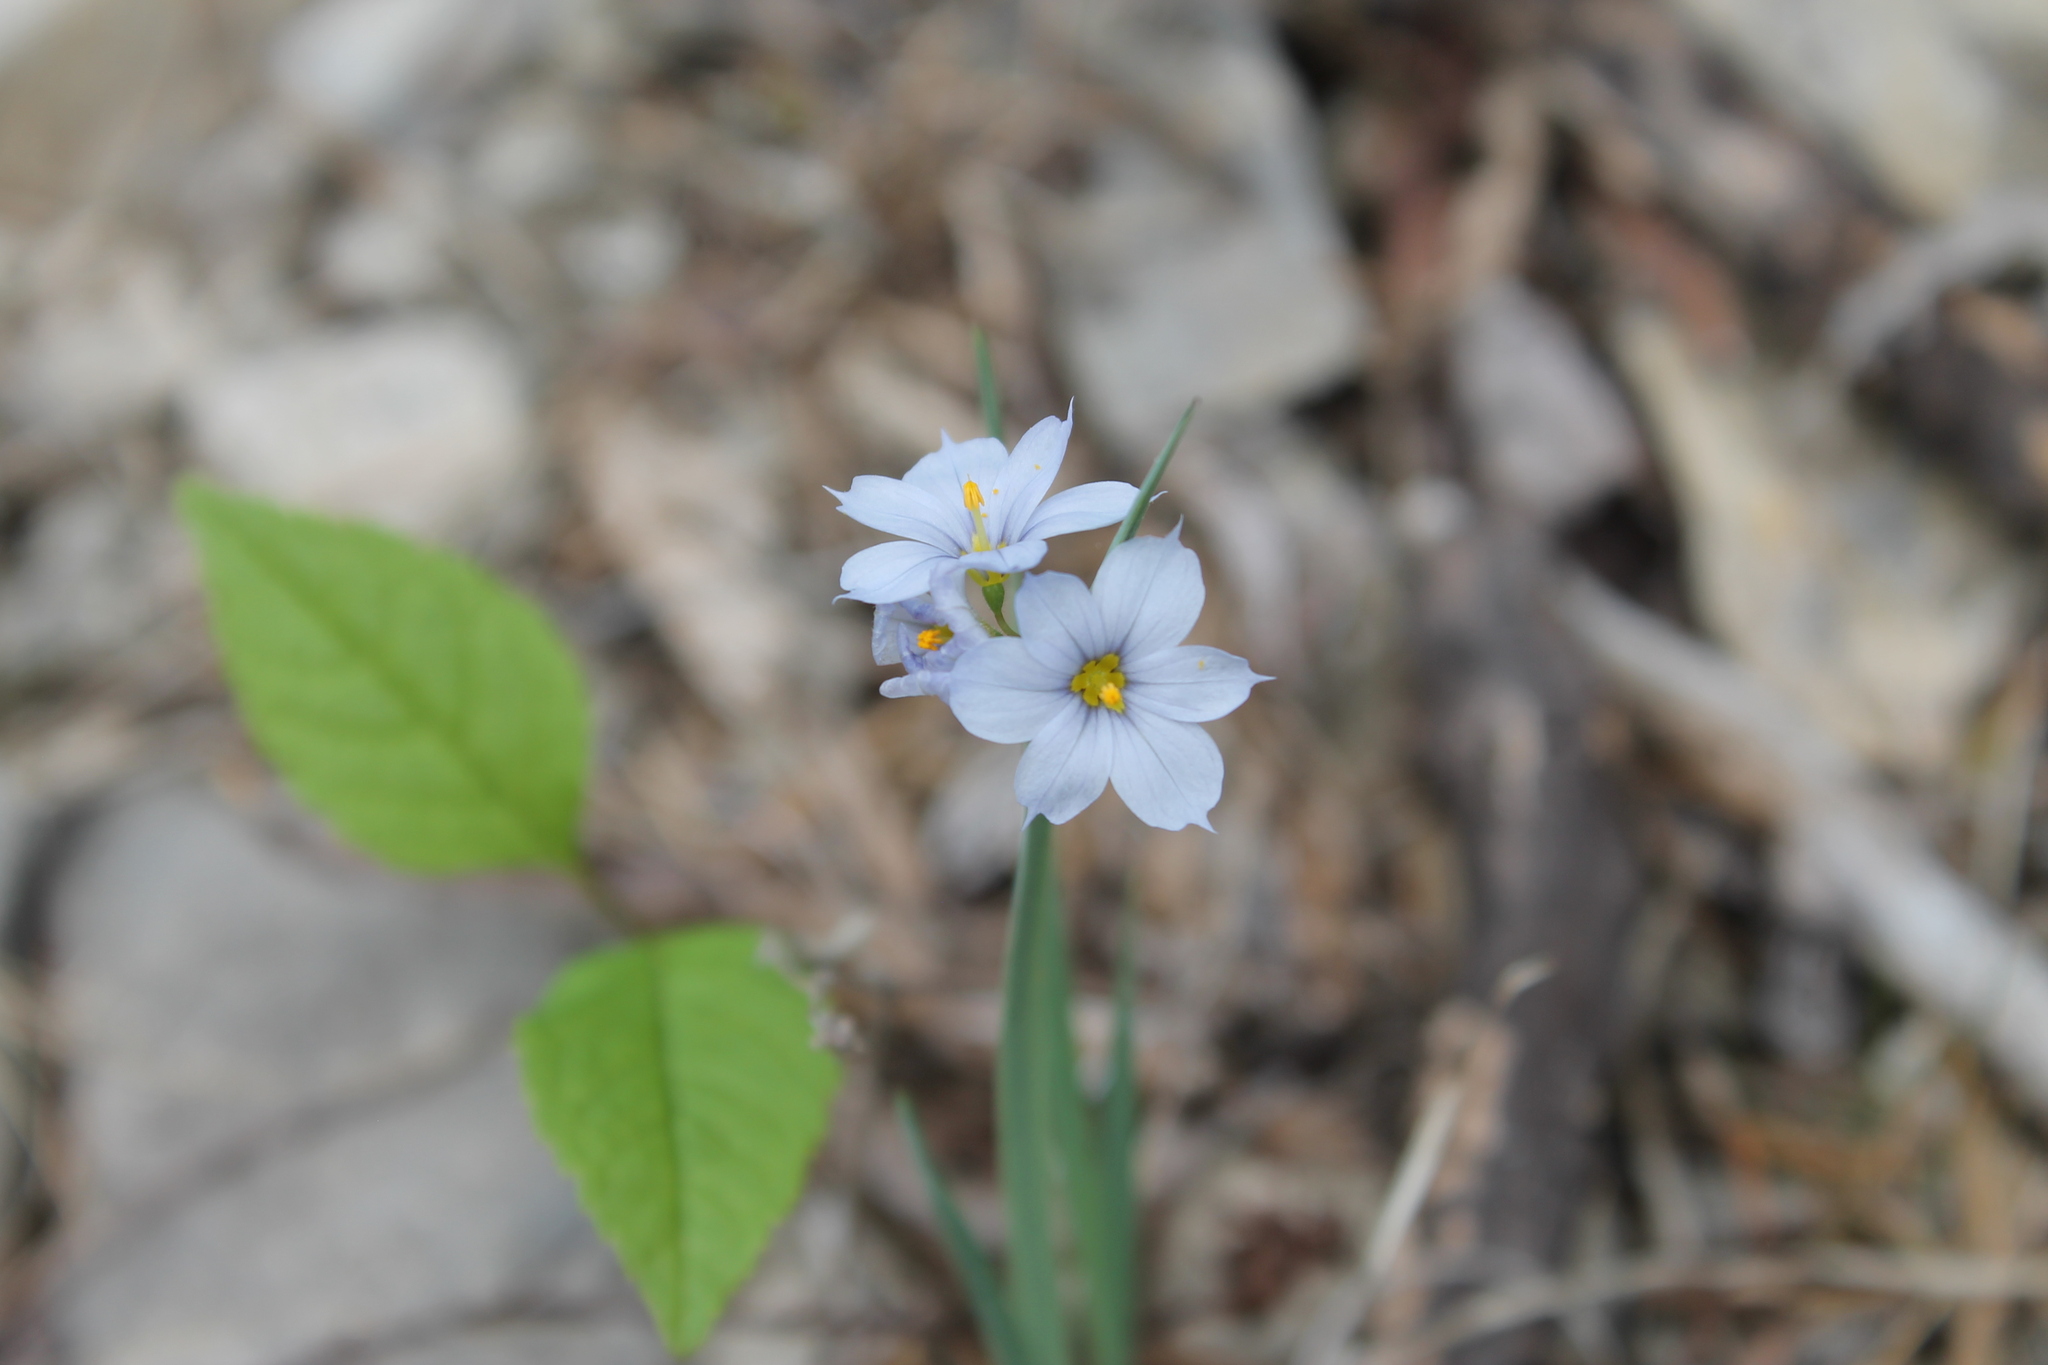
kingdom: Plantae
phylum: Tracheophyta
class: Liliopsida
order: Asparagales
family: Iridaceae
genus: Sisyrinchium
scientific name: Sisyrinchium albidum
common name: Pale blue-eyed-grass
